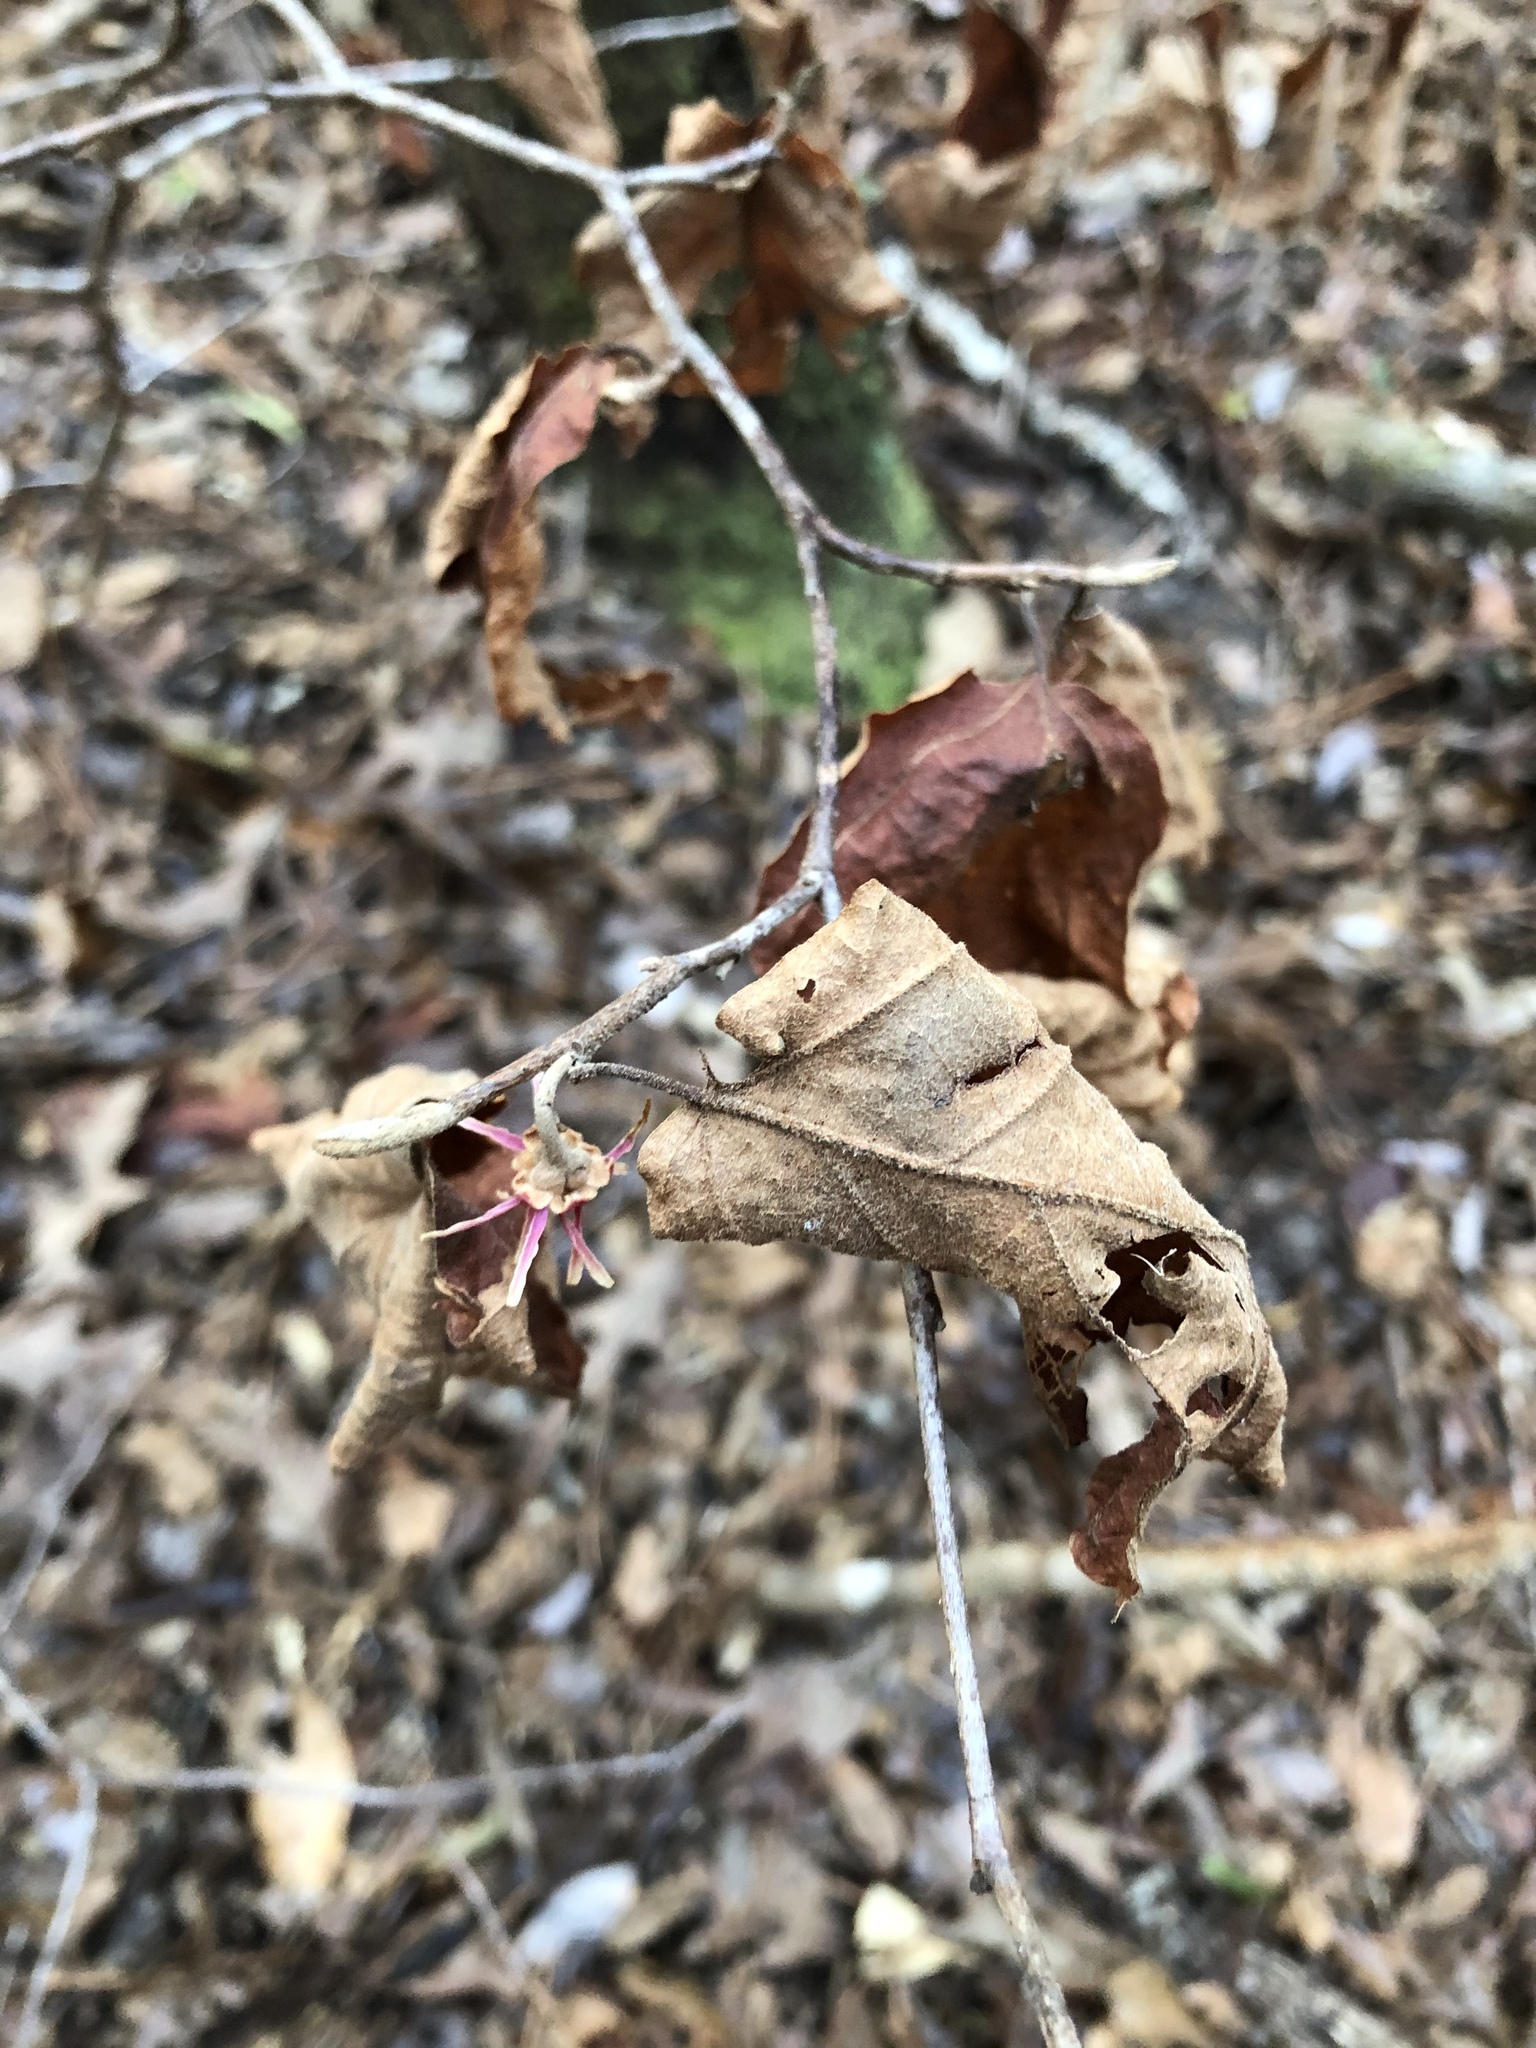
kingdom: Plantae
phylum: Tracheophyta
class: Magnoliopsida
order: Saxifragales
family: Hamamelidaceae
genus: Hamamelis
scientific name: Hamamelis ovalis
